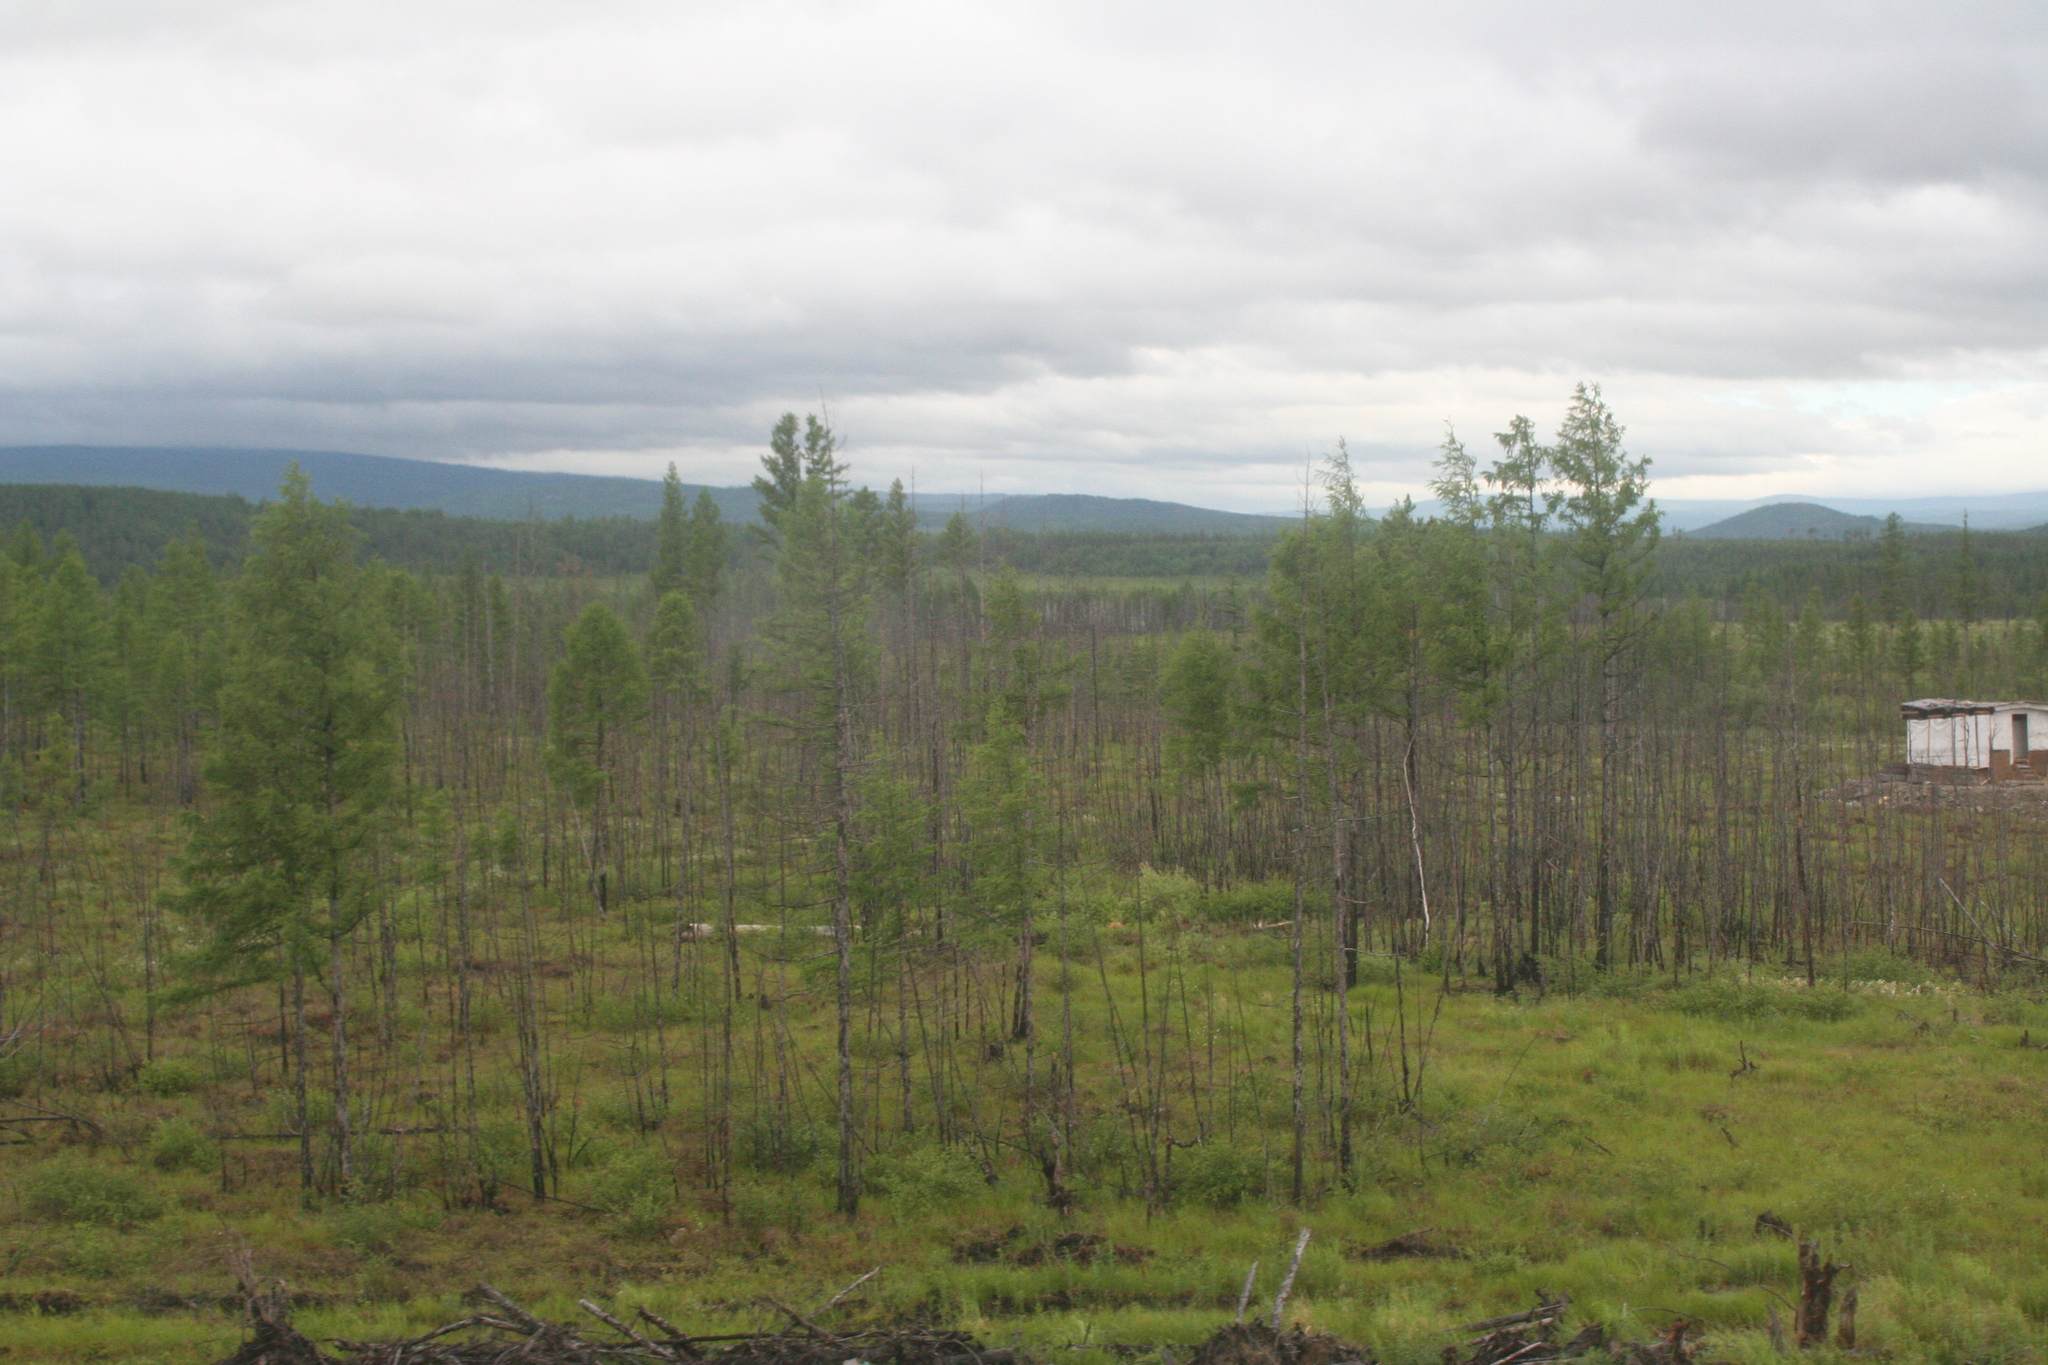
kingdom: Plantae
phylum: Tracheophyta
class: Pinopsida
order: Pinales
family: Pinaceae
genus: Larix
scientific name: Larix gmelinii
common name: Dahurian larch
